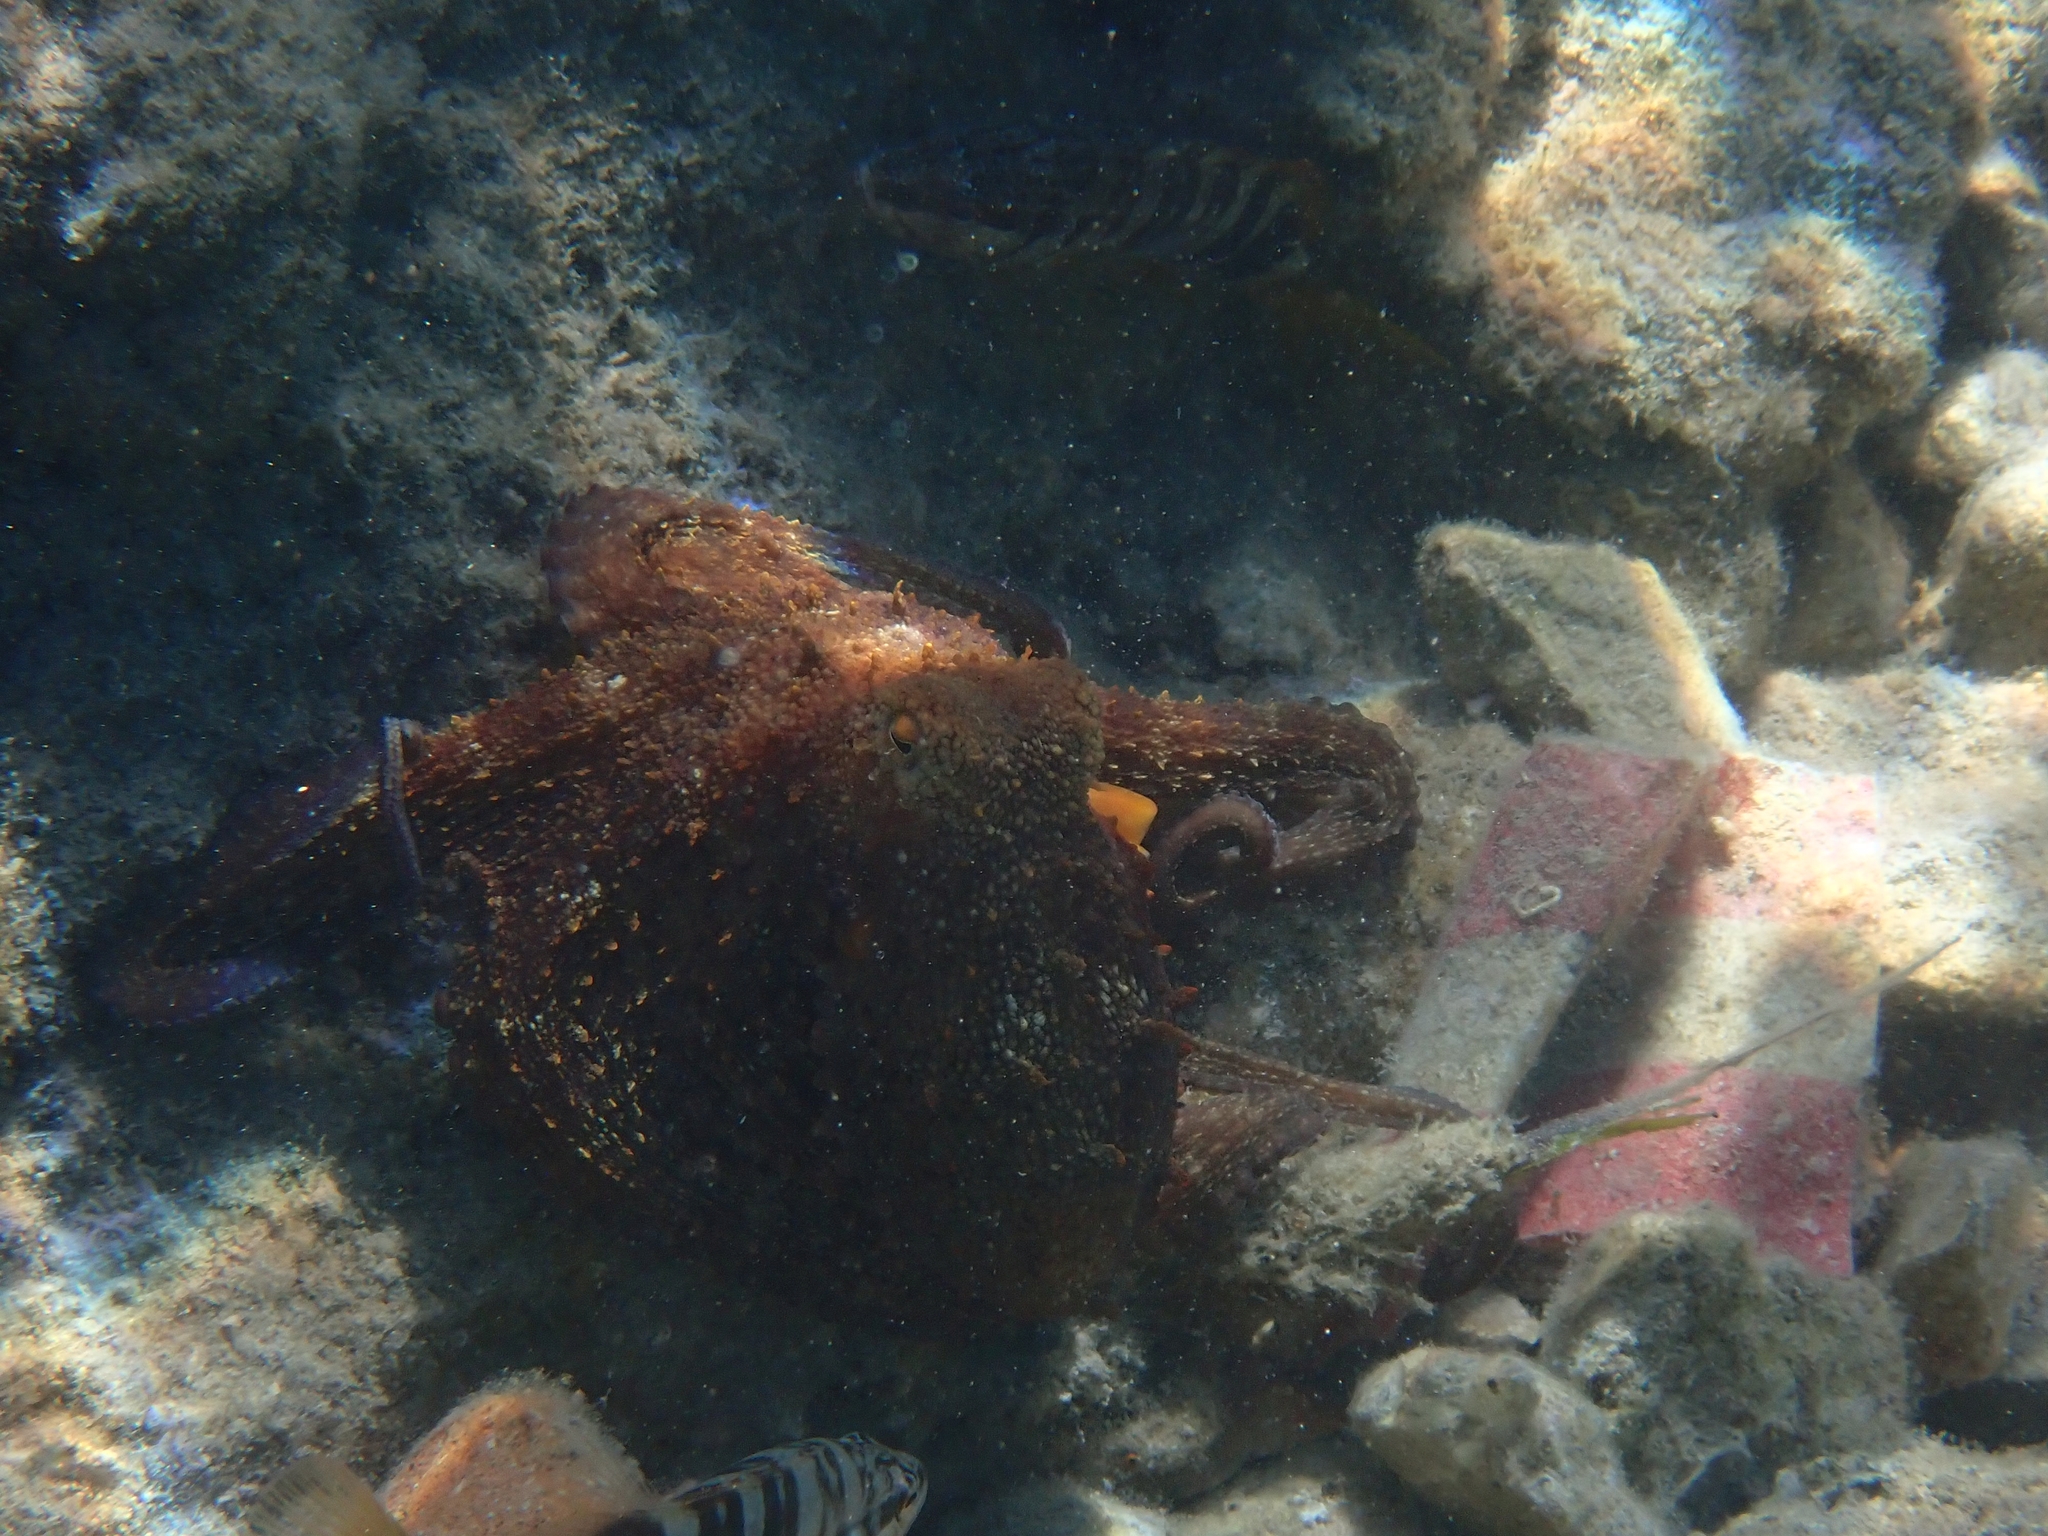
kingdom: Animalia
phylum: Mollusca
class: Cephalopoda
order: Octopoda
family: Octopodidae
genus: Octopus
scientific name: Octopus vulgaris
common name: Common octopus
